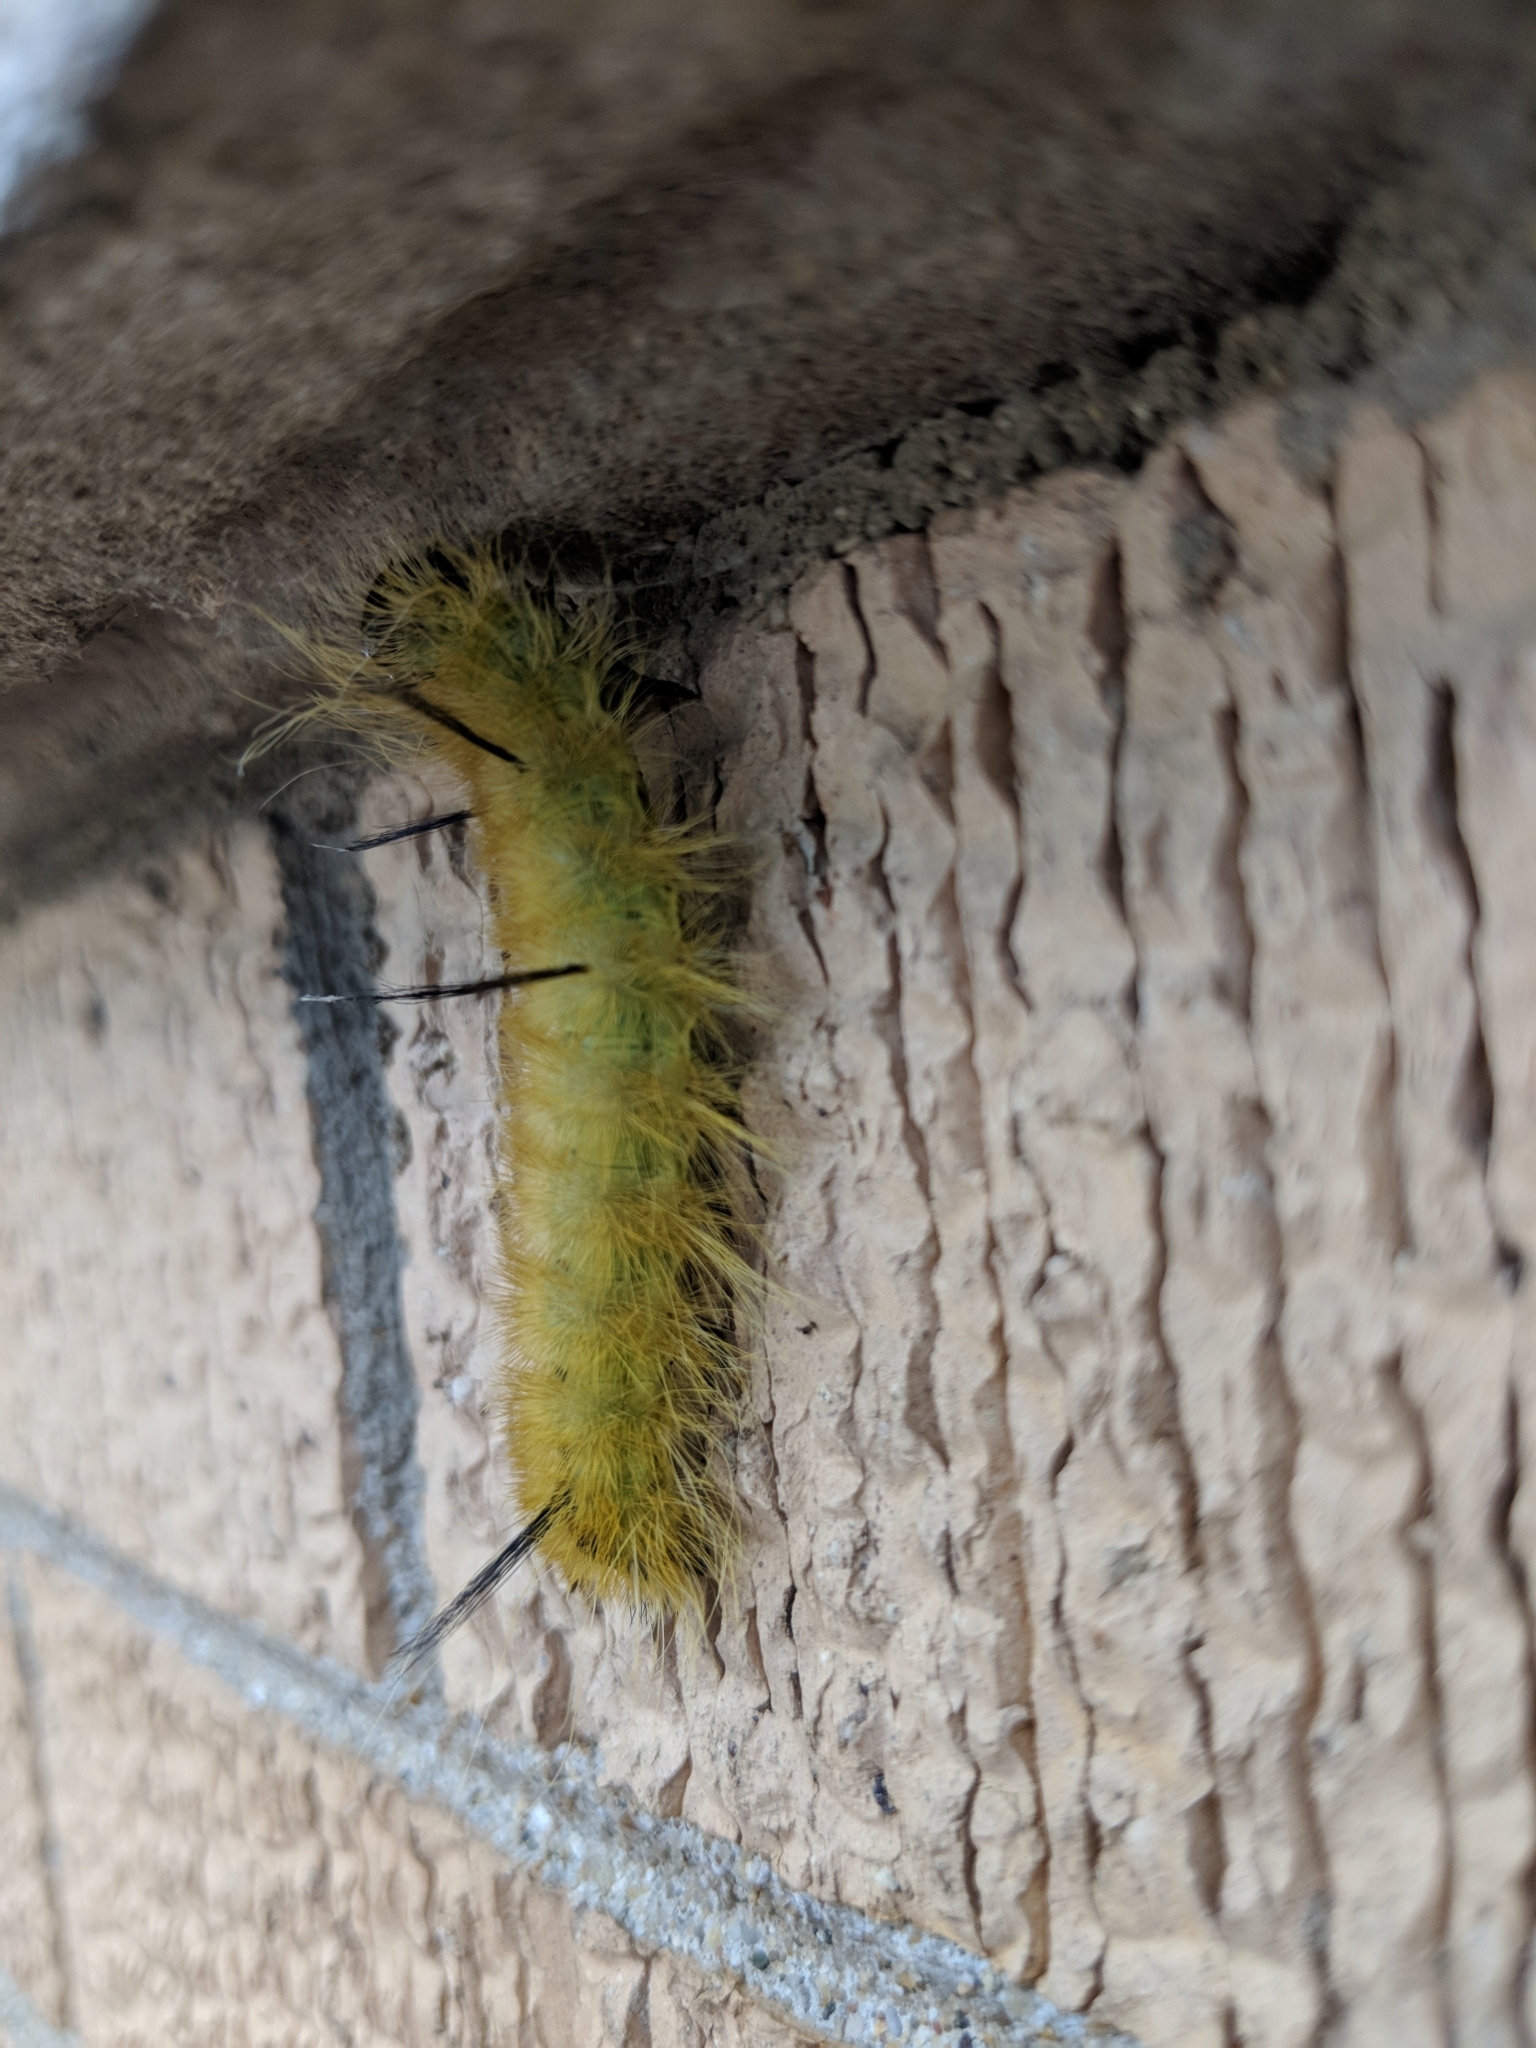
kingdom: Animalia
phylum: Arthropoda
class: Insecta
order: Lepidoptera
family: Noctuidae
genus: Acronicta
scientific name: Acronicta americana
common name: American dagger
